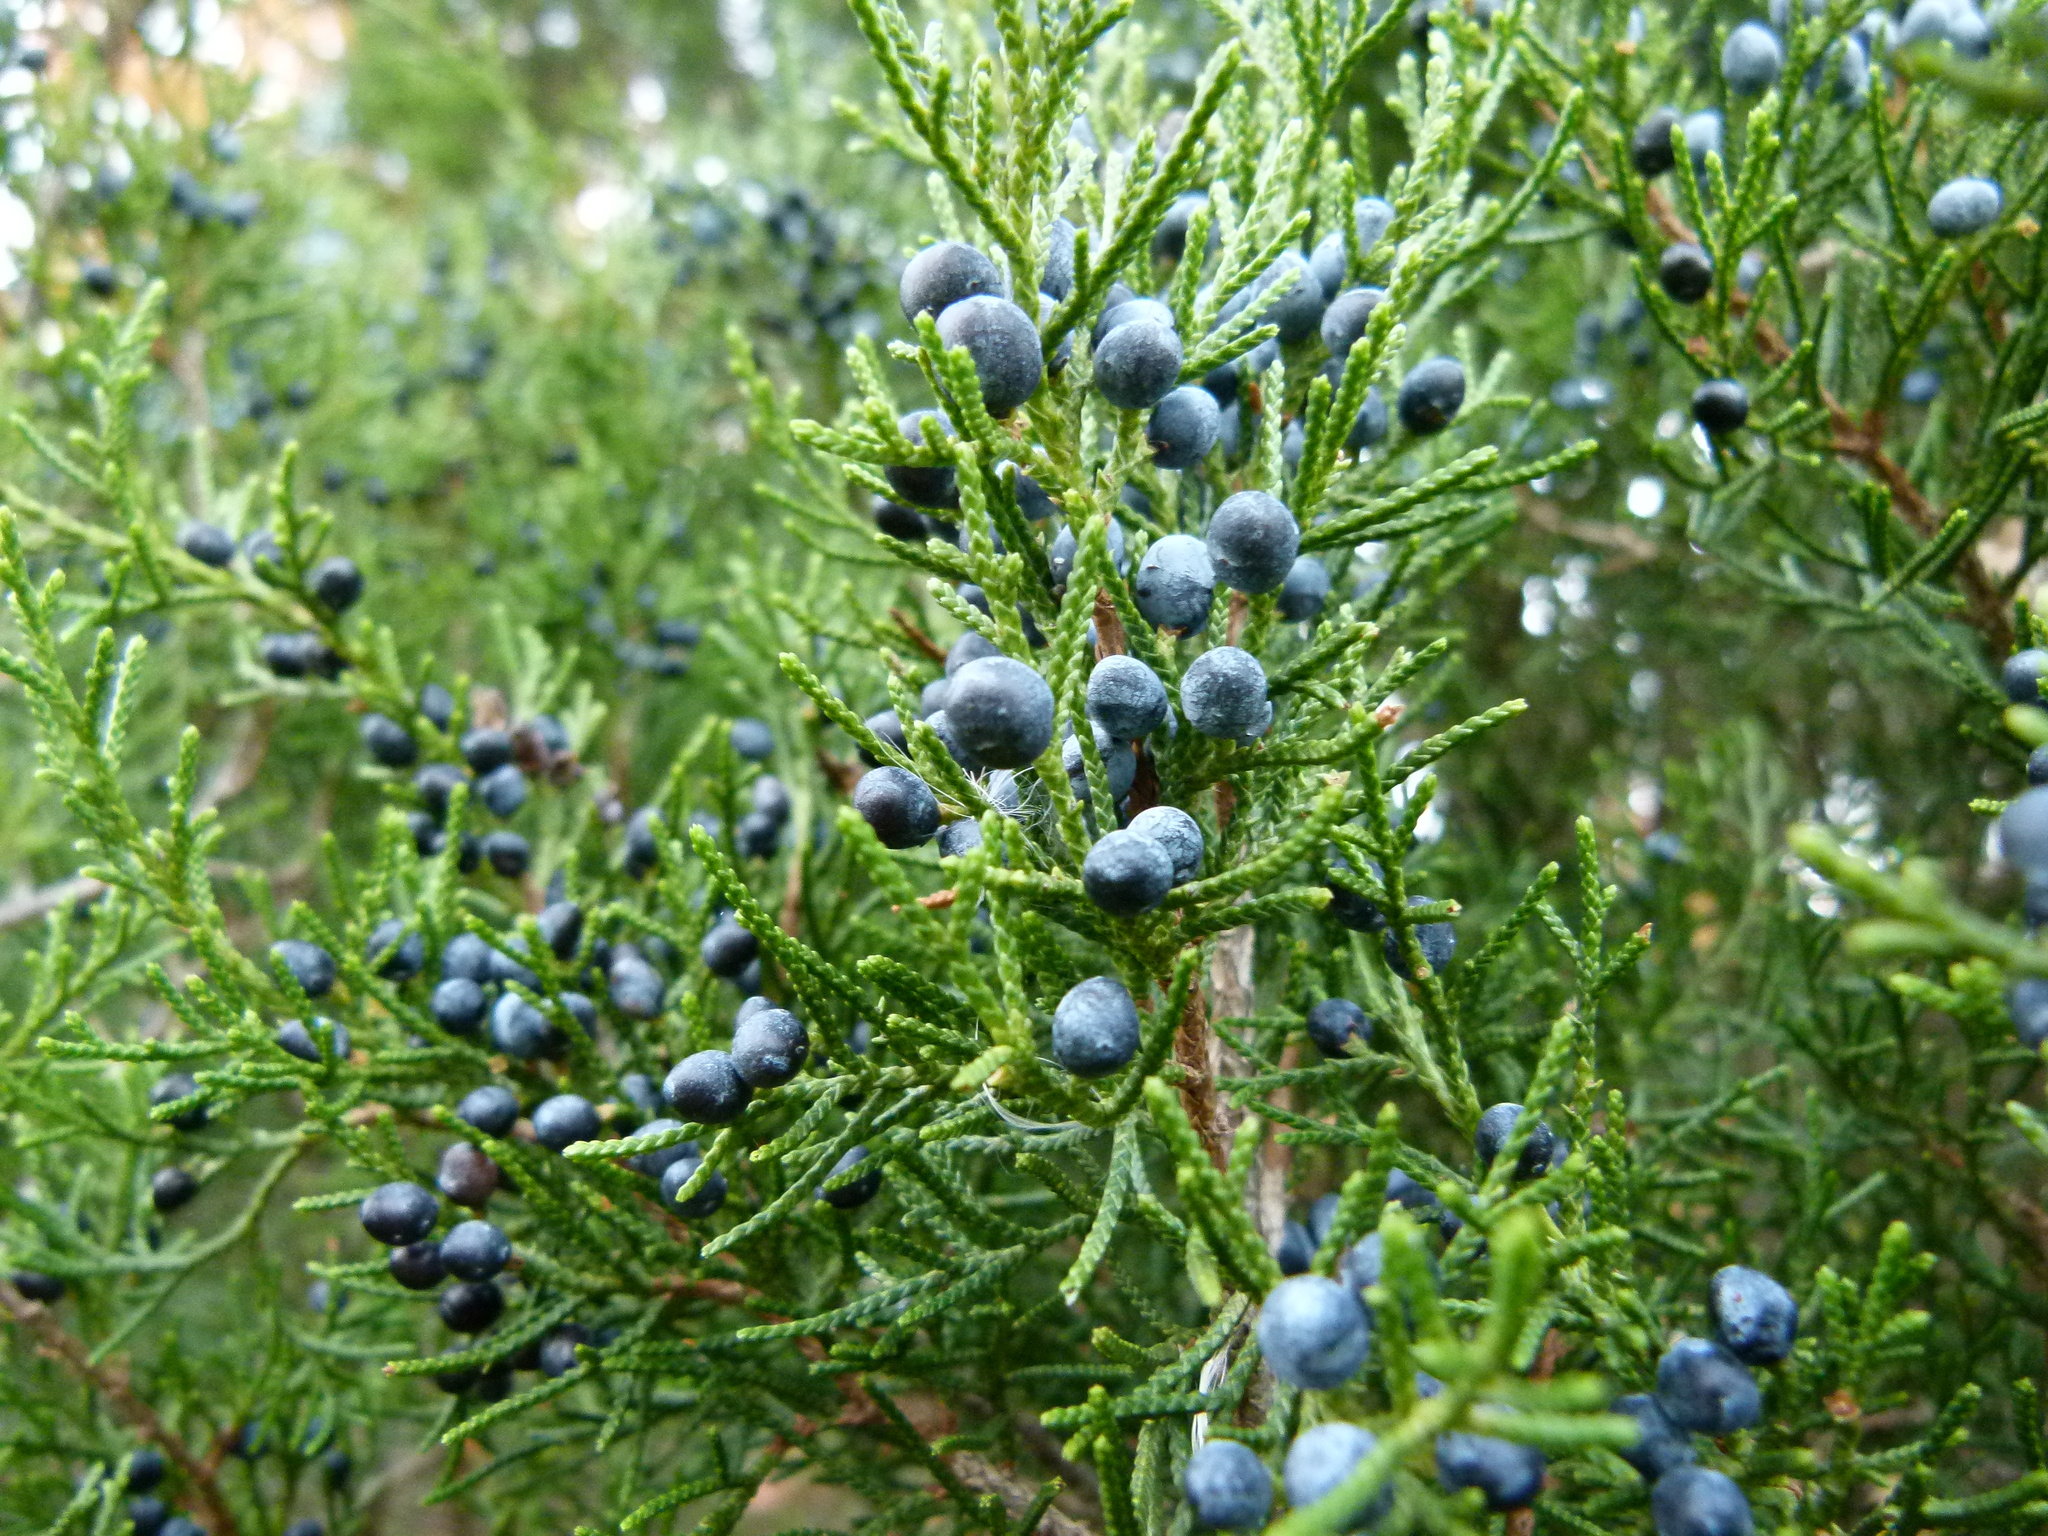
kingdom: Plantae
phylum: Tracheophyta
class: Pinopsida
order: Pinales
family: Cupressaceae
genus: Juniperus
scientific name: Juniperus virginiana
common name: Red juniper
